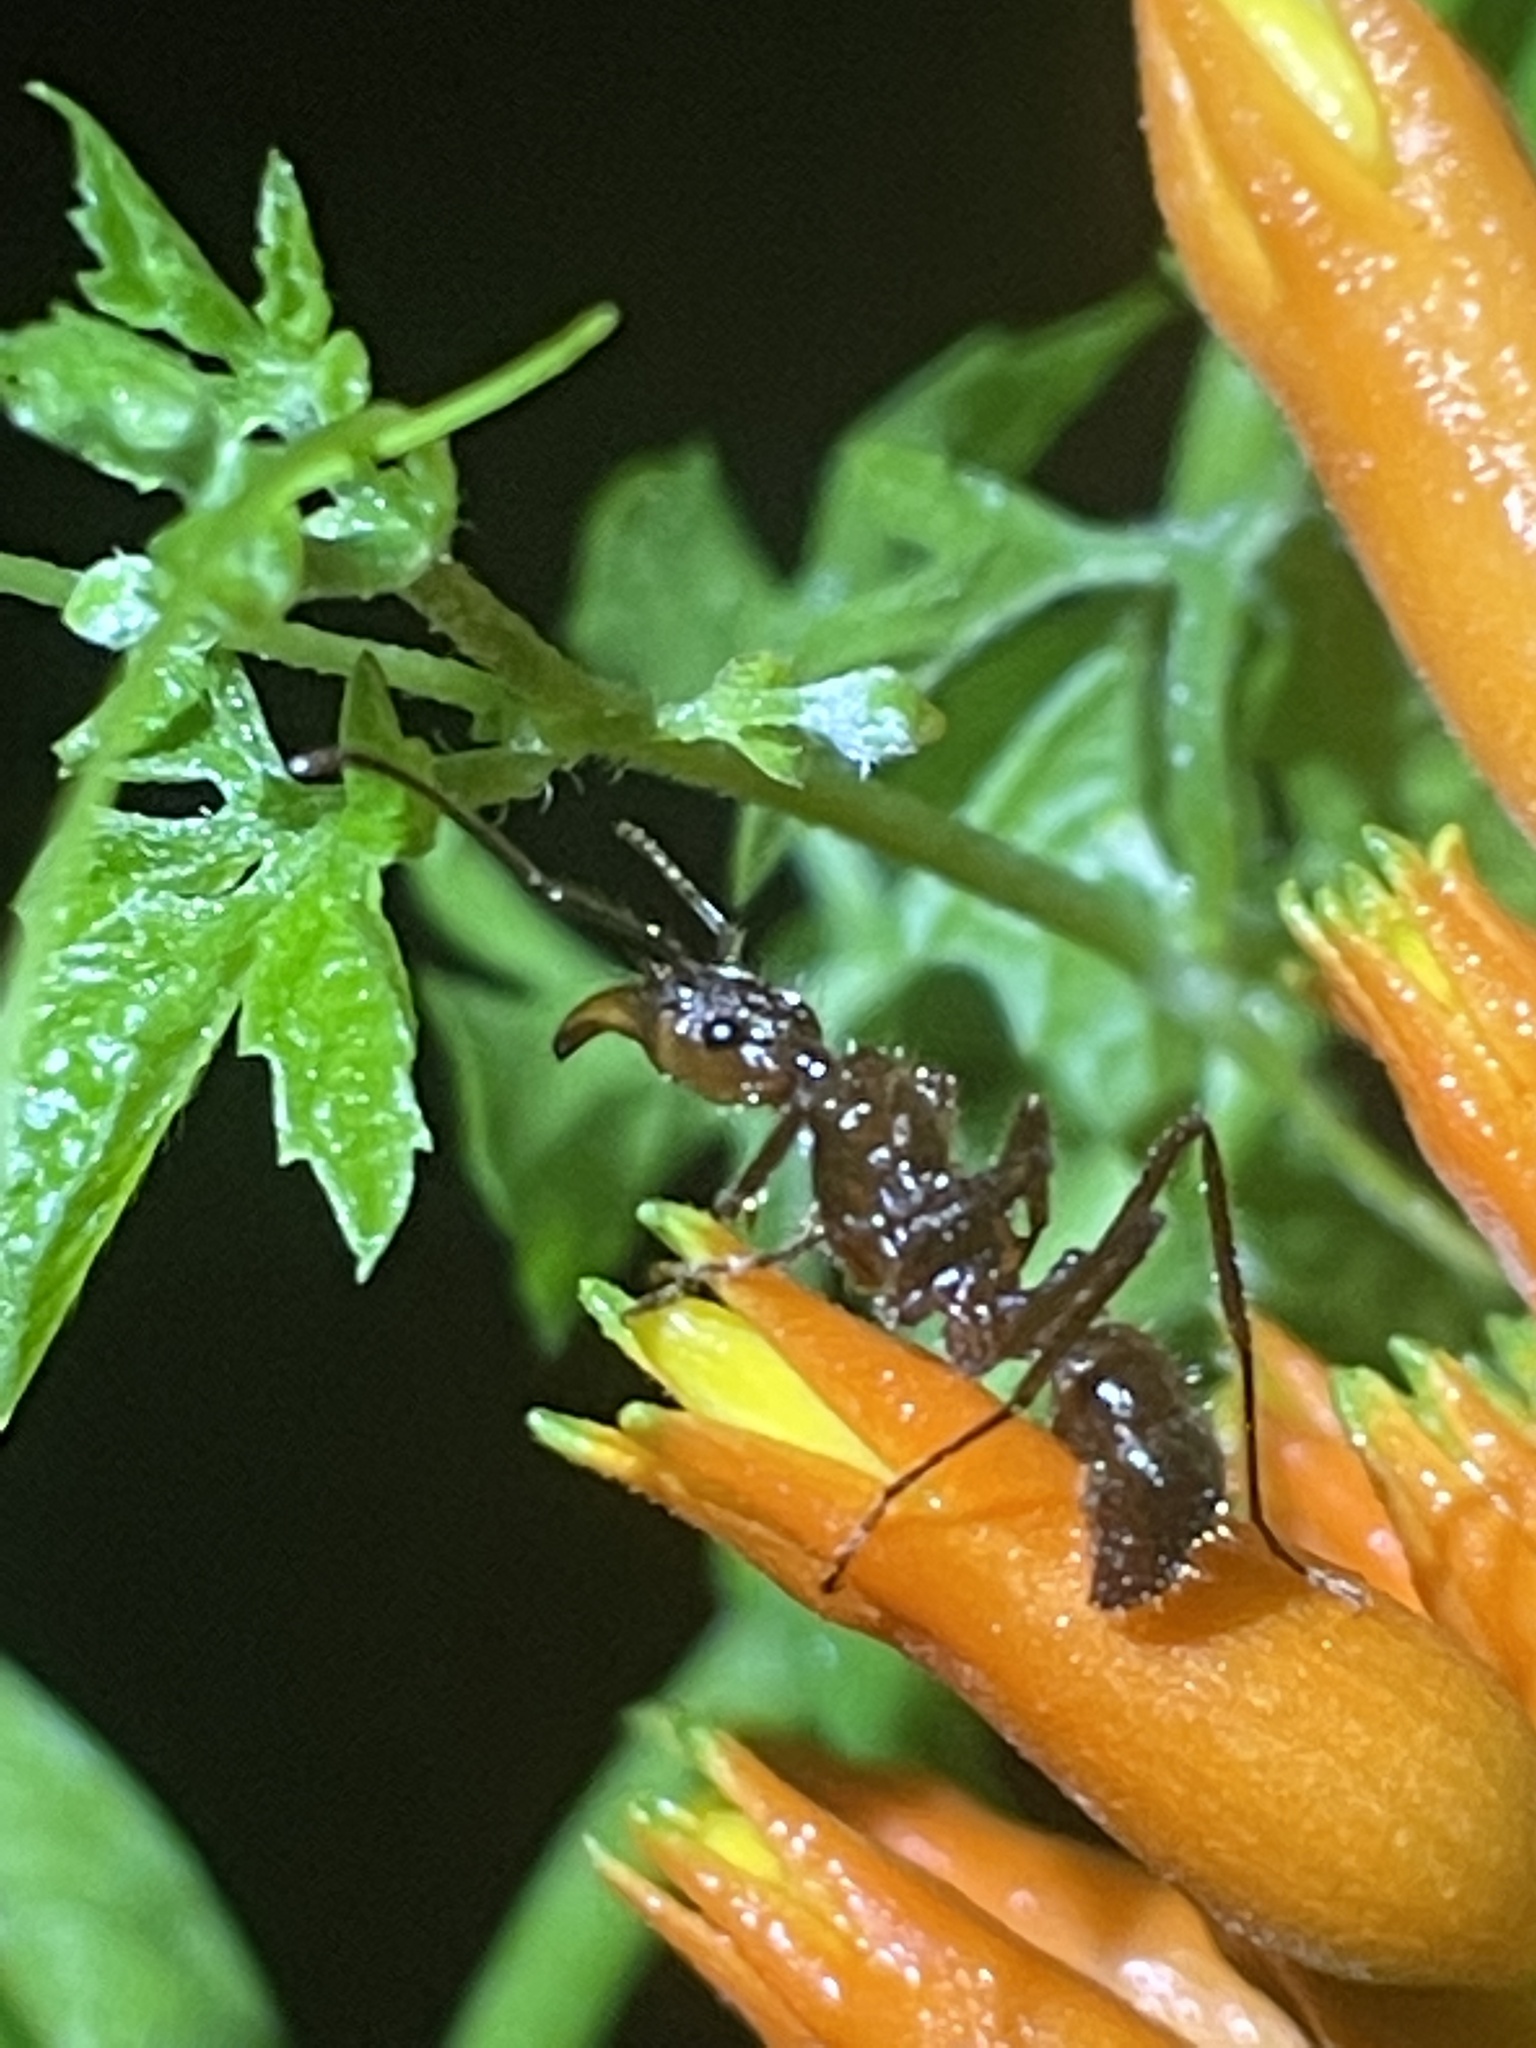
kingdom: Animalia
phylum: Arthropoda
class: Insecta
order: Hymenoptera
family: Formicidae
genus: Ectatomma
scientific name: Ectatomma tuberculatum
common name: Ant
